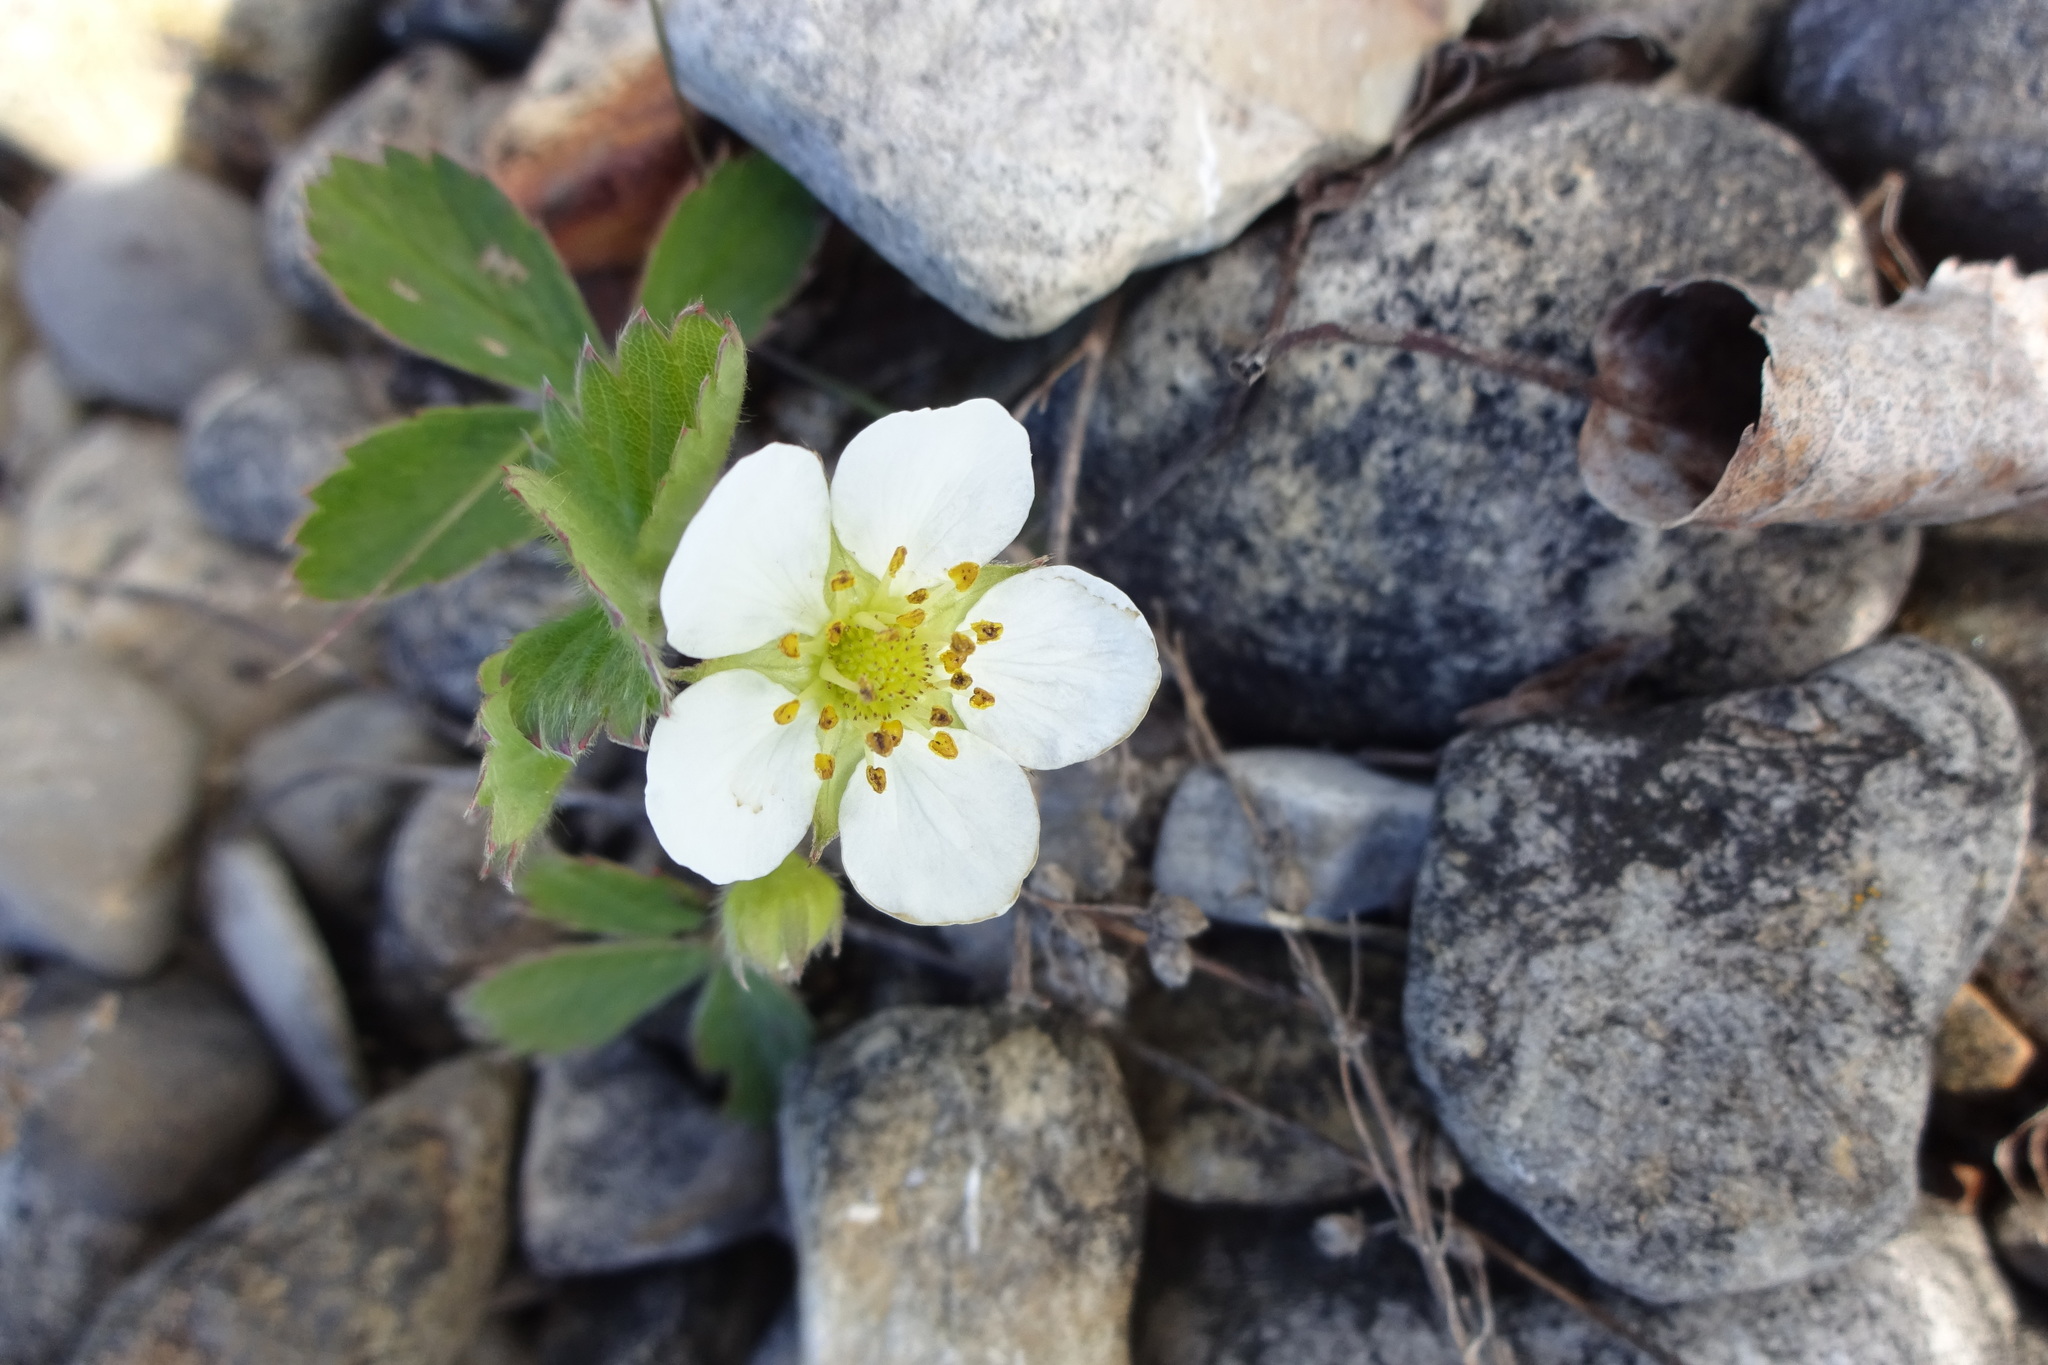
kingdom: Plantae
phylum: Tracheophyta
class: Magnoliopsida
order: Rosales
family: Rosaceae
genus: Fragaria
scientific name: Fragaria virginiana
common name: Thickleaved wild strawberry
